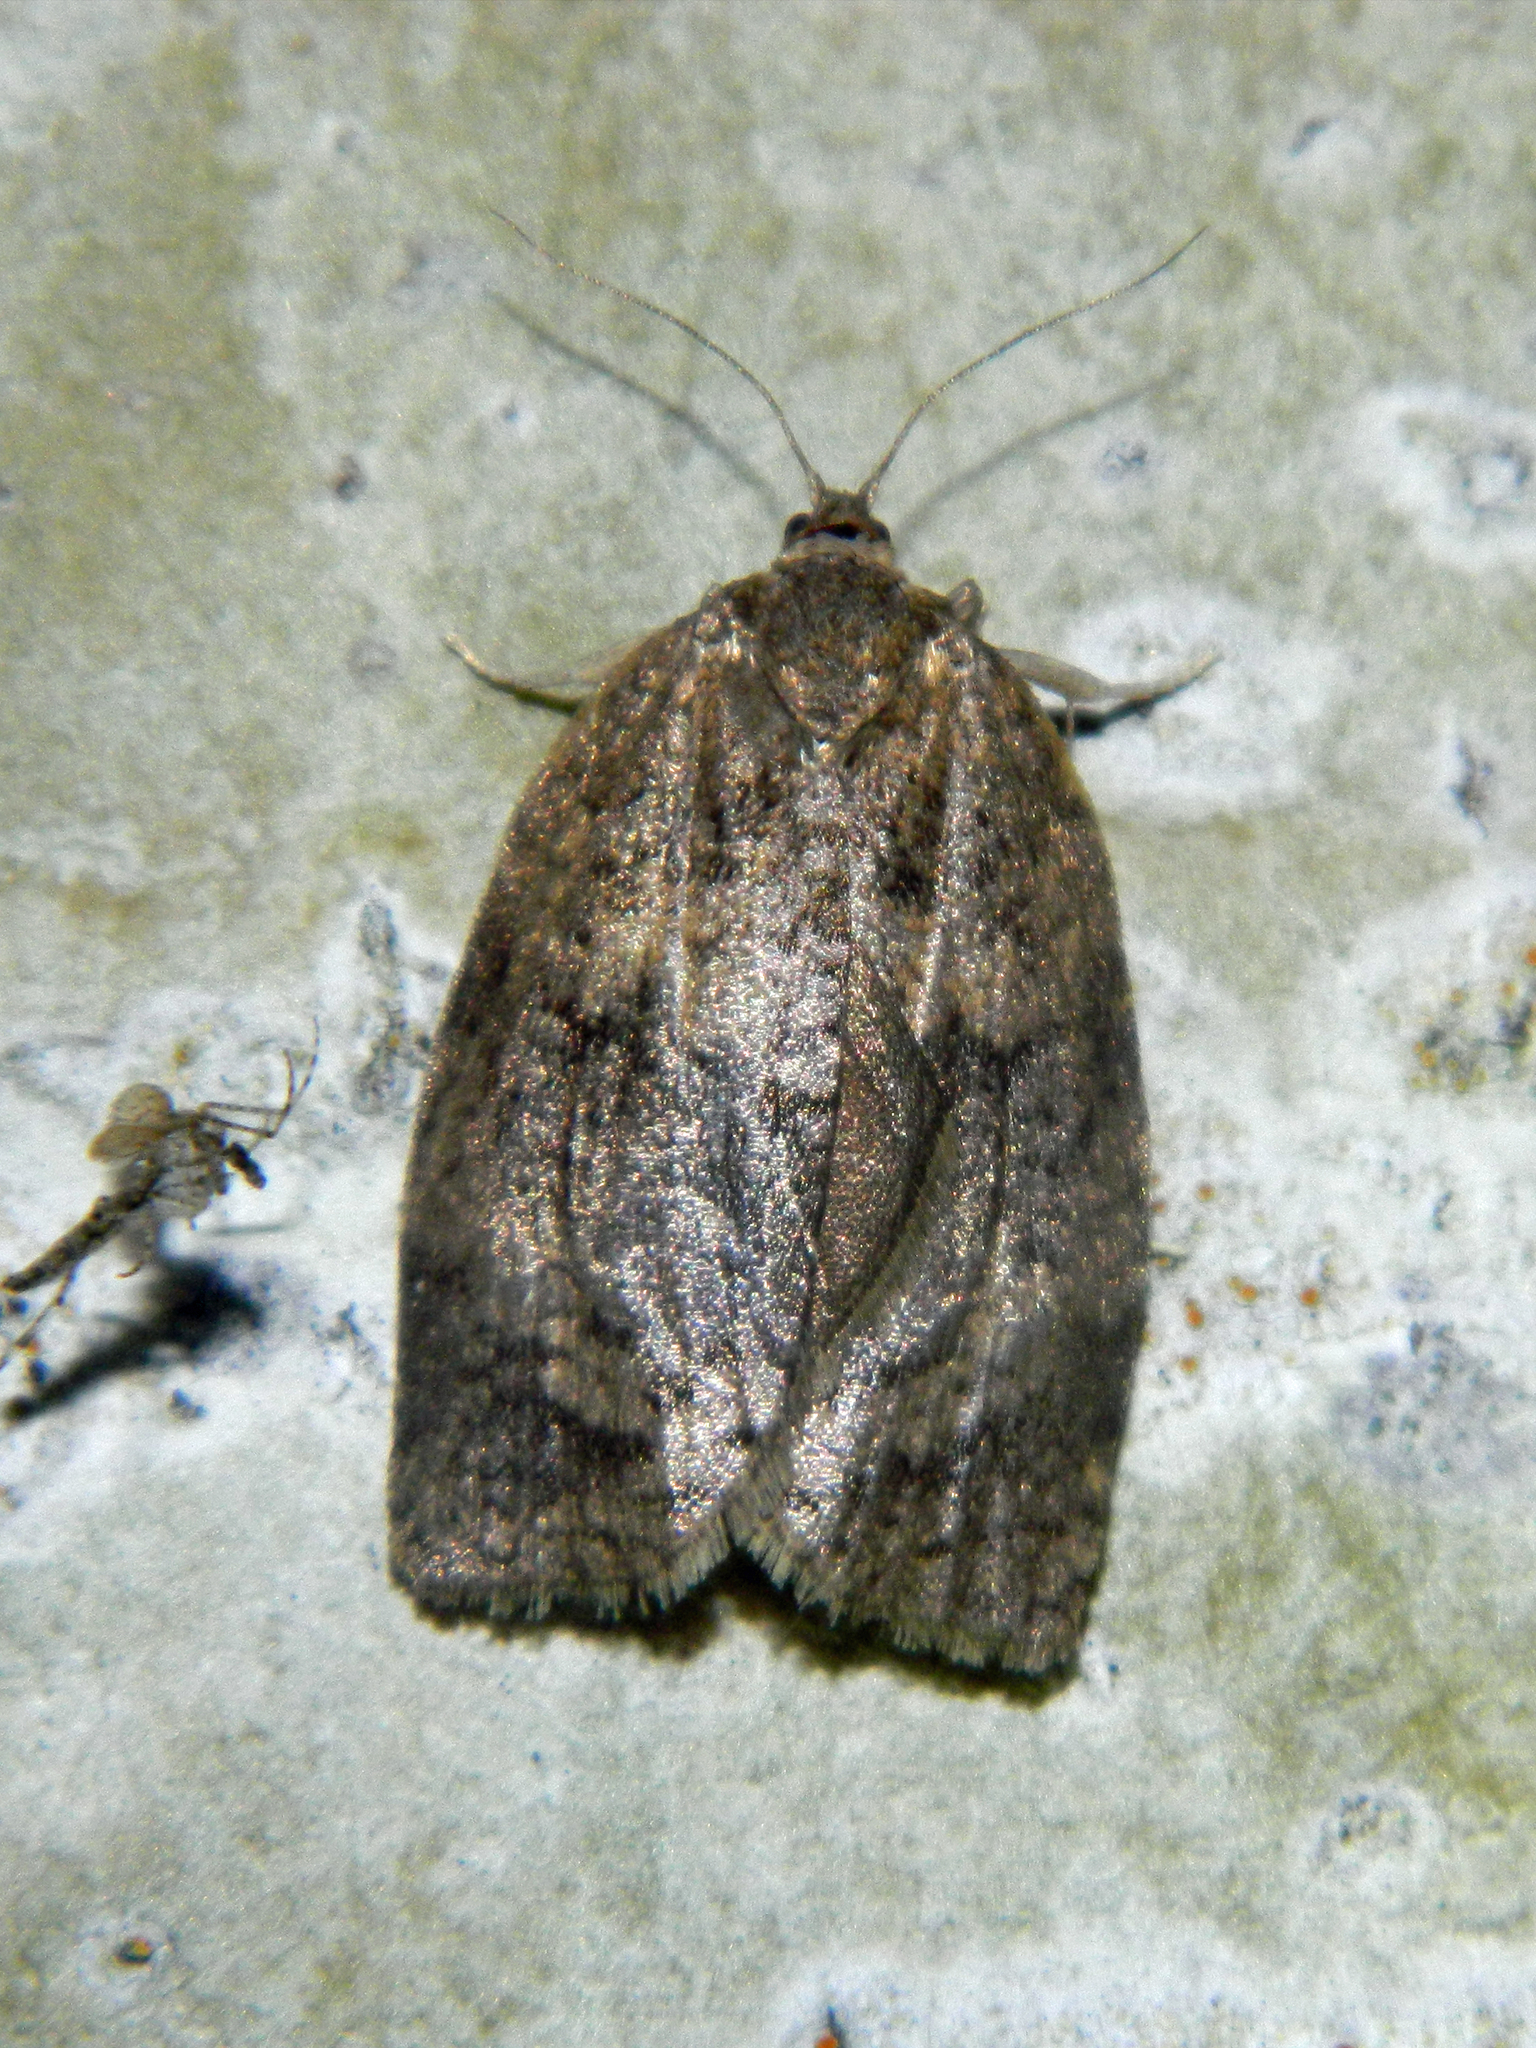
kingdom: Animalia
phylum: Arthropoda
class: Insecta
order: Lepidoptera
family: Tortricidae
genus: Choristoneura
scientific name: Choristoneura conflictana
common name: Large aspen tortrix
